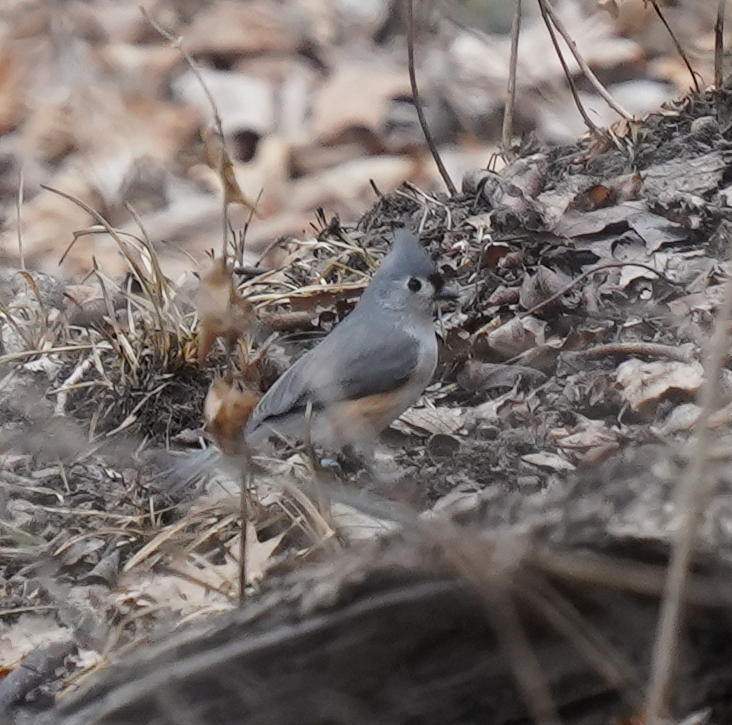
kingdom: Animalia
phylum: Chordata
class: Aves
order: Passeriformes
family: Paridae
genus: Baeolophus
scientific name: Baeolophus bicolor
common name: Tufted titmouse
